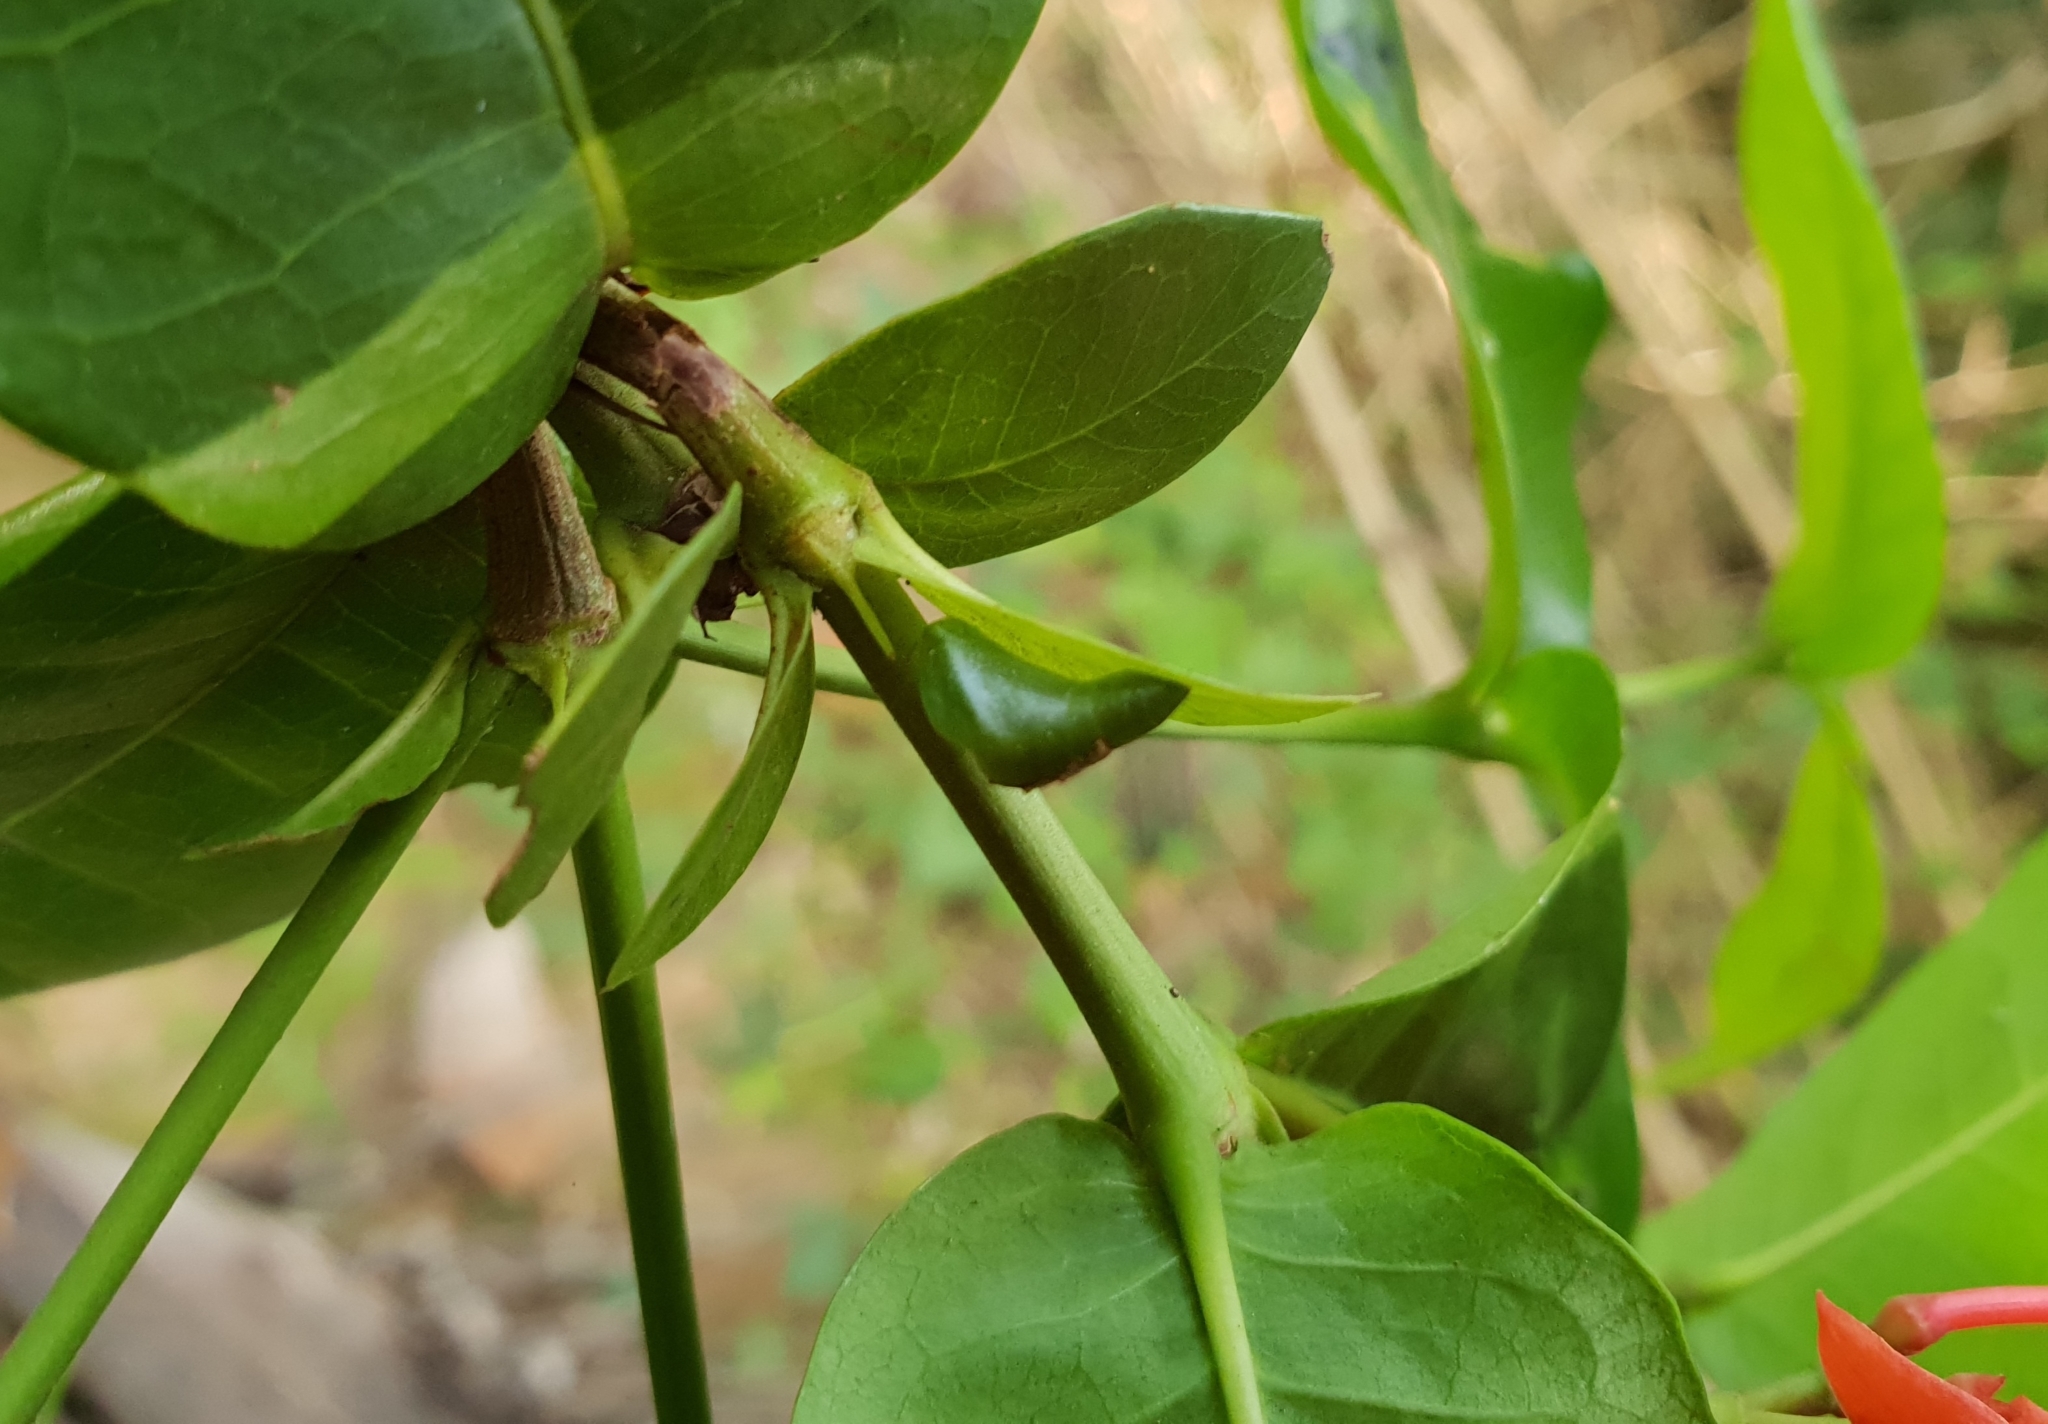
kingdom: Animalia
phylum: Arthropoda
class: Insecta
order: Lepidoptera
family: Lycaenidae
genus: Rathinda
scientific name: Rathinda amor
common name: Monkey puzzle
